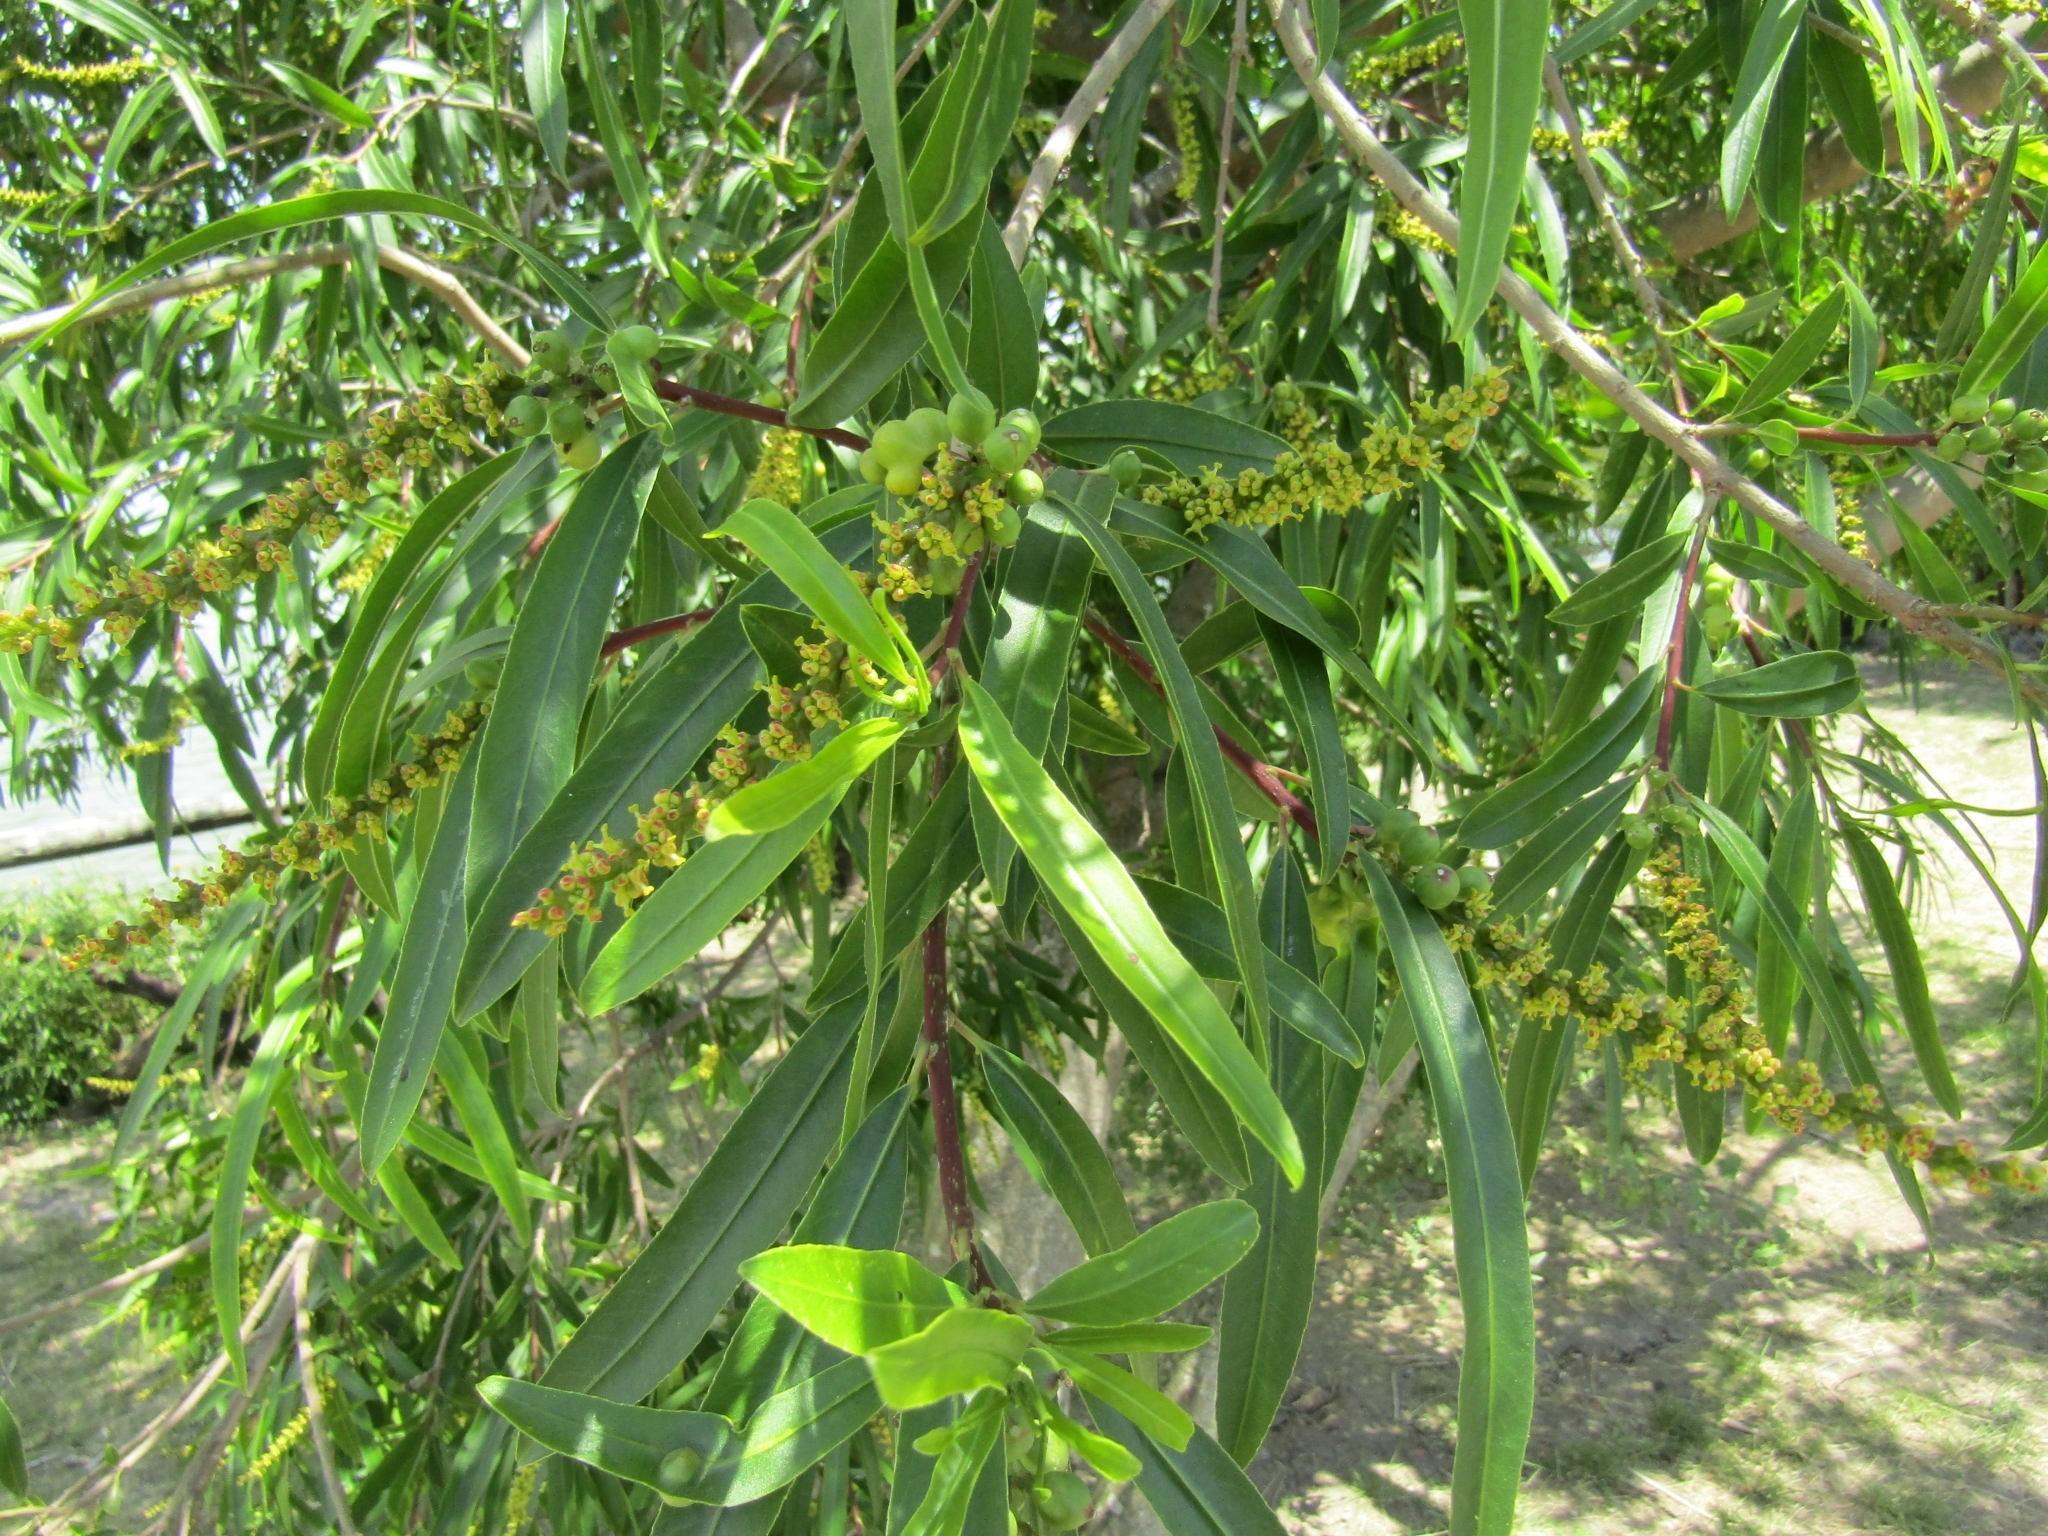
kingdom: Plantae
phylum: Tracheophyta
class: Magnoliopsida
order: Malpighiales
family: Euphorbiaceae
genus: Sapium
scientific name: Sapium haematospermum
